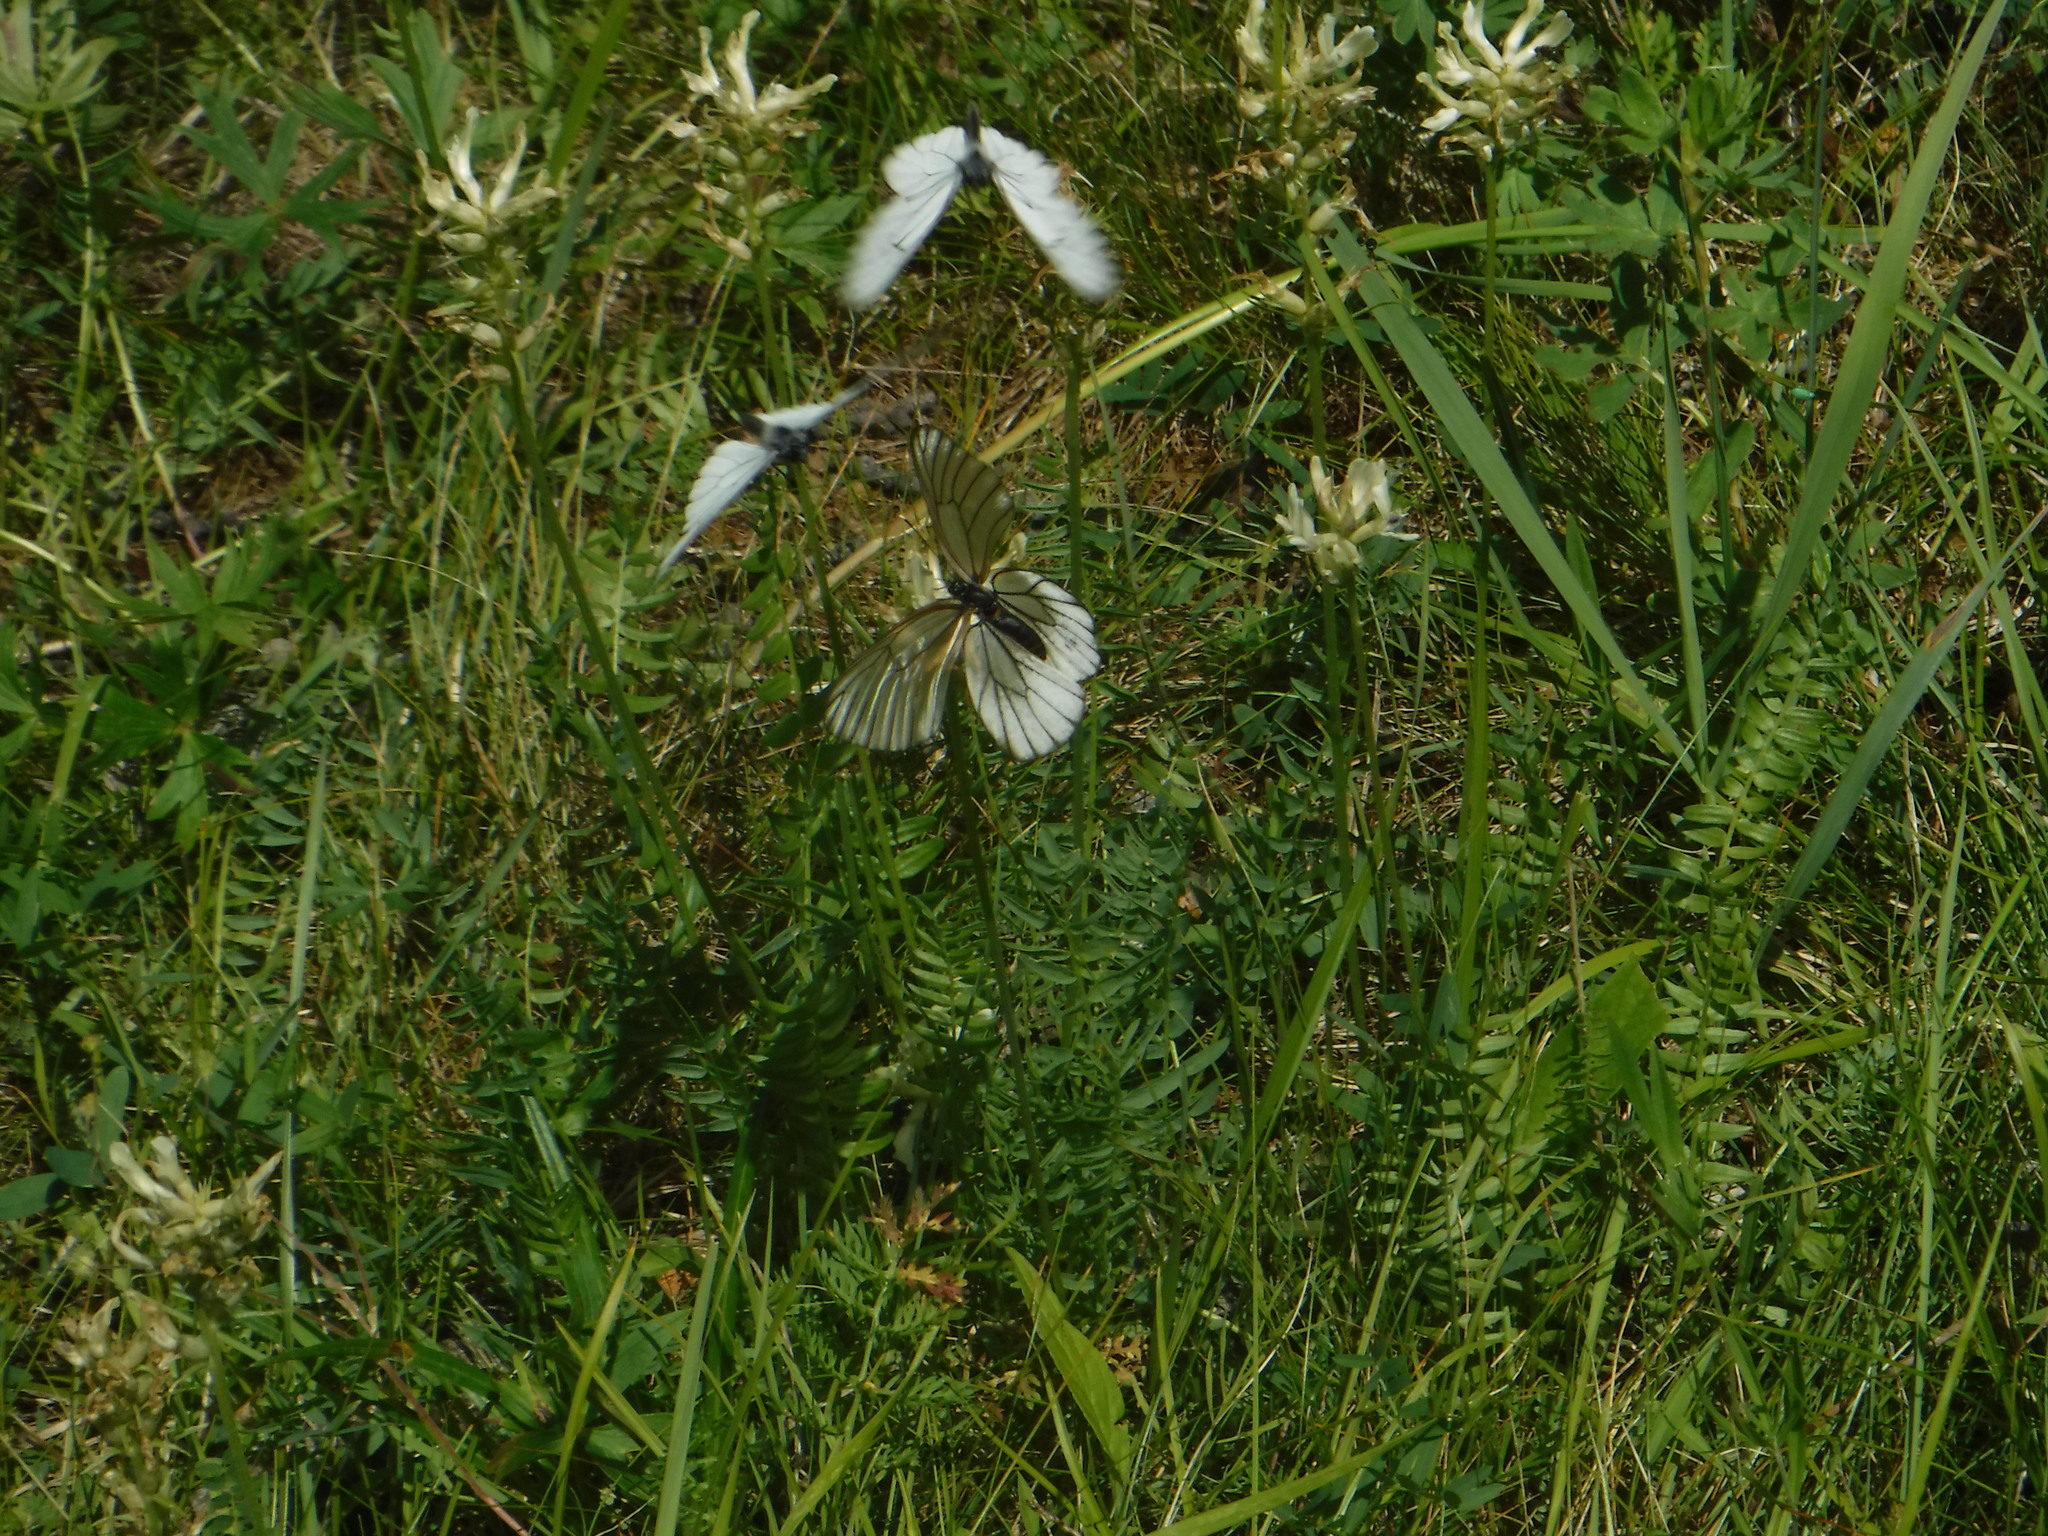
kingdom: Animalia
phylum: Arthropoda
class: Insecta
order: Lepidoptera
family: Pieridae
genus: Aporia
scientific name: Aporia crataegi
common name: Black-veined white
